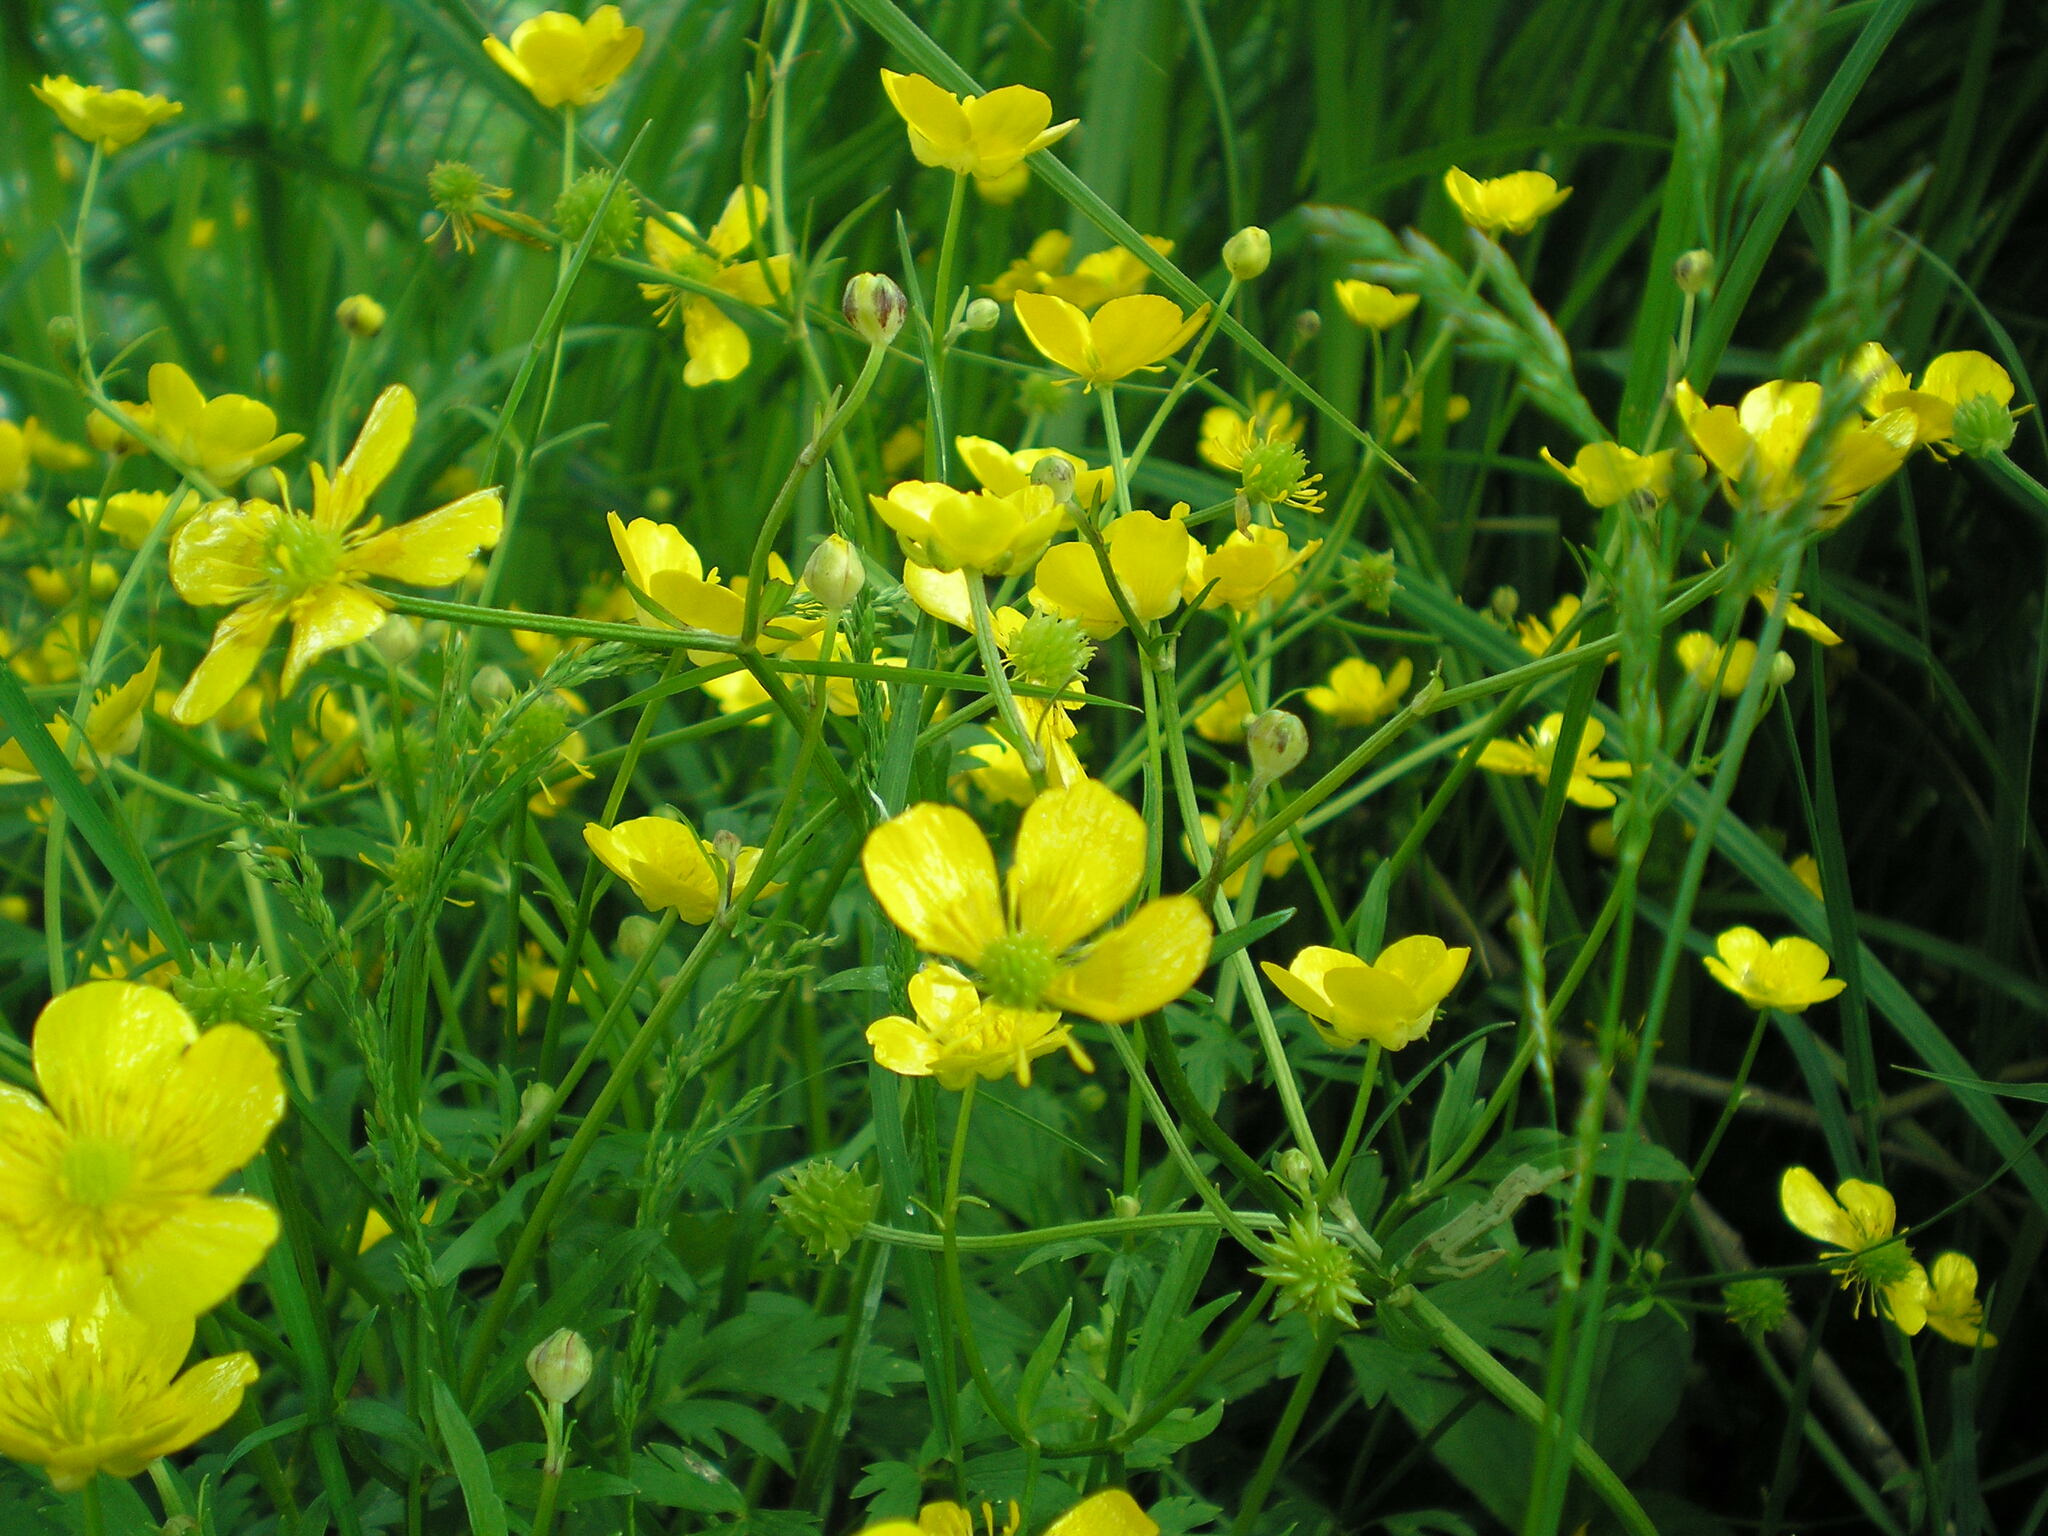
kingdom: Plantae
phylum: Tracheophyta
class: Magnoliopsida
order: Ranunculales
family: Ranunculaceae
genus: Ranunculus
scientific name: Ranunculus repens
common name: Creeping buttercup
